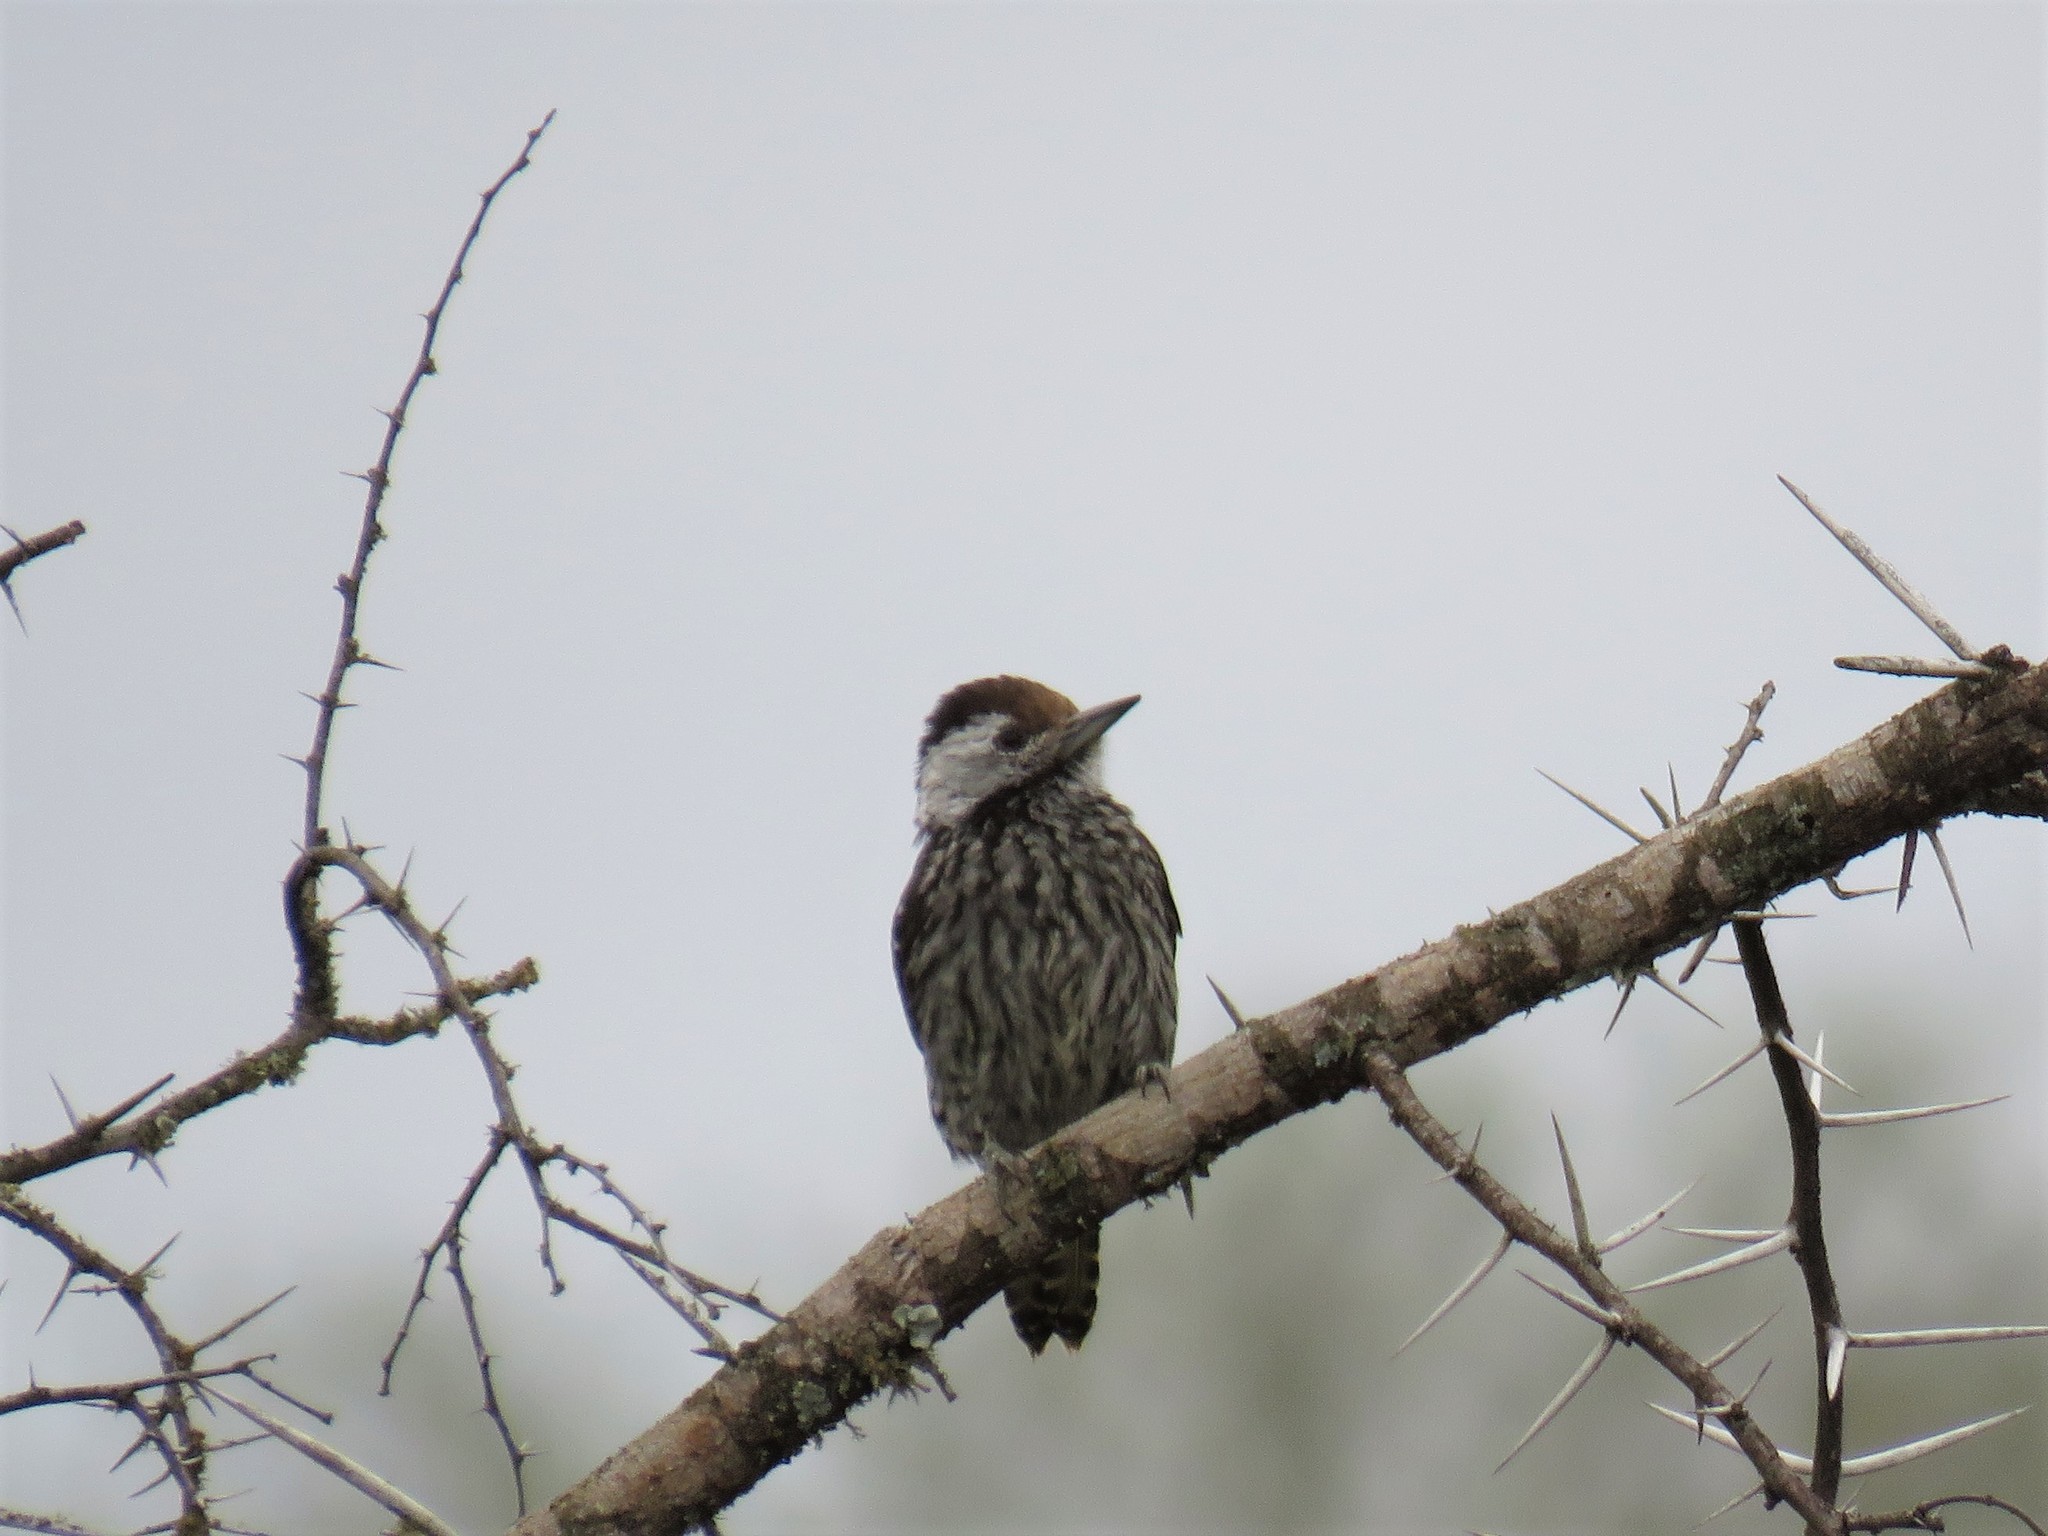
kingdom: Animalia
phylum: Chordata
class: Aves
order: Piciformes
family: Picidae
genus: Dendropicos
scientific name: Dendropicos fuscescens
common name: Cardinal woodpecker
